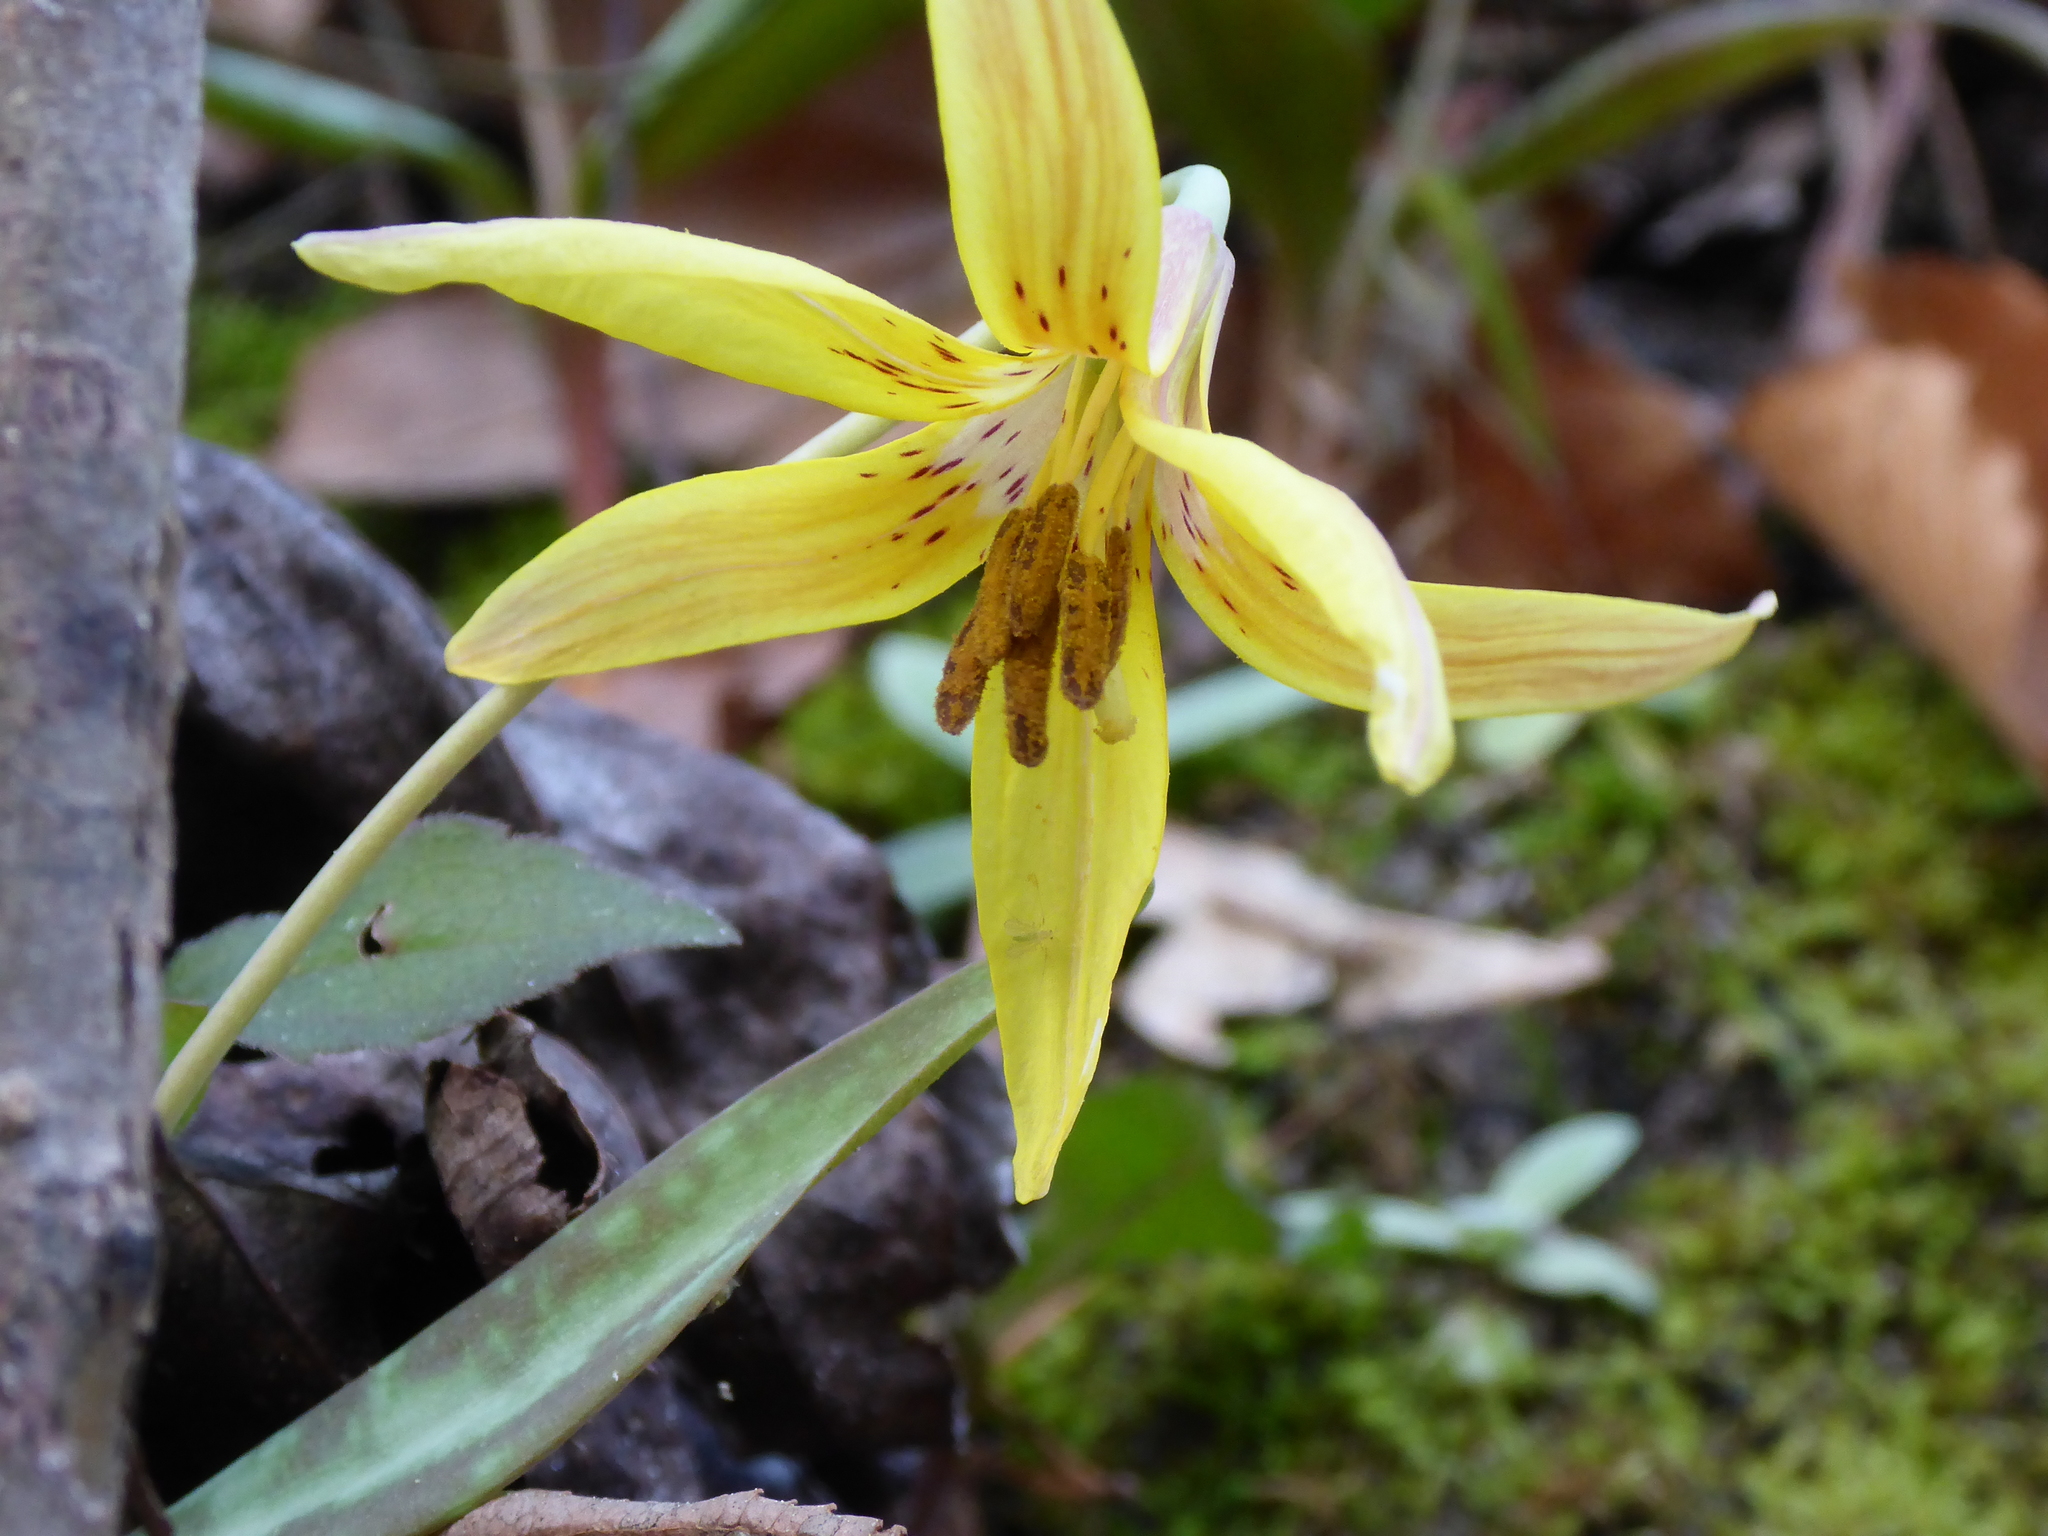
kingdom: Plantae
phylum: Tracheophyta
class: Liliopsida
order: Liliales
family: Liliaceae
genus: Erythronium
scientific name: Erythronium umbilicatum
